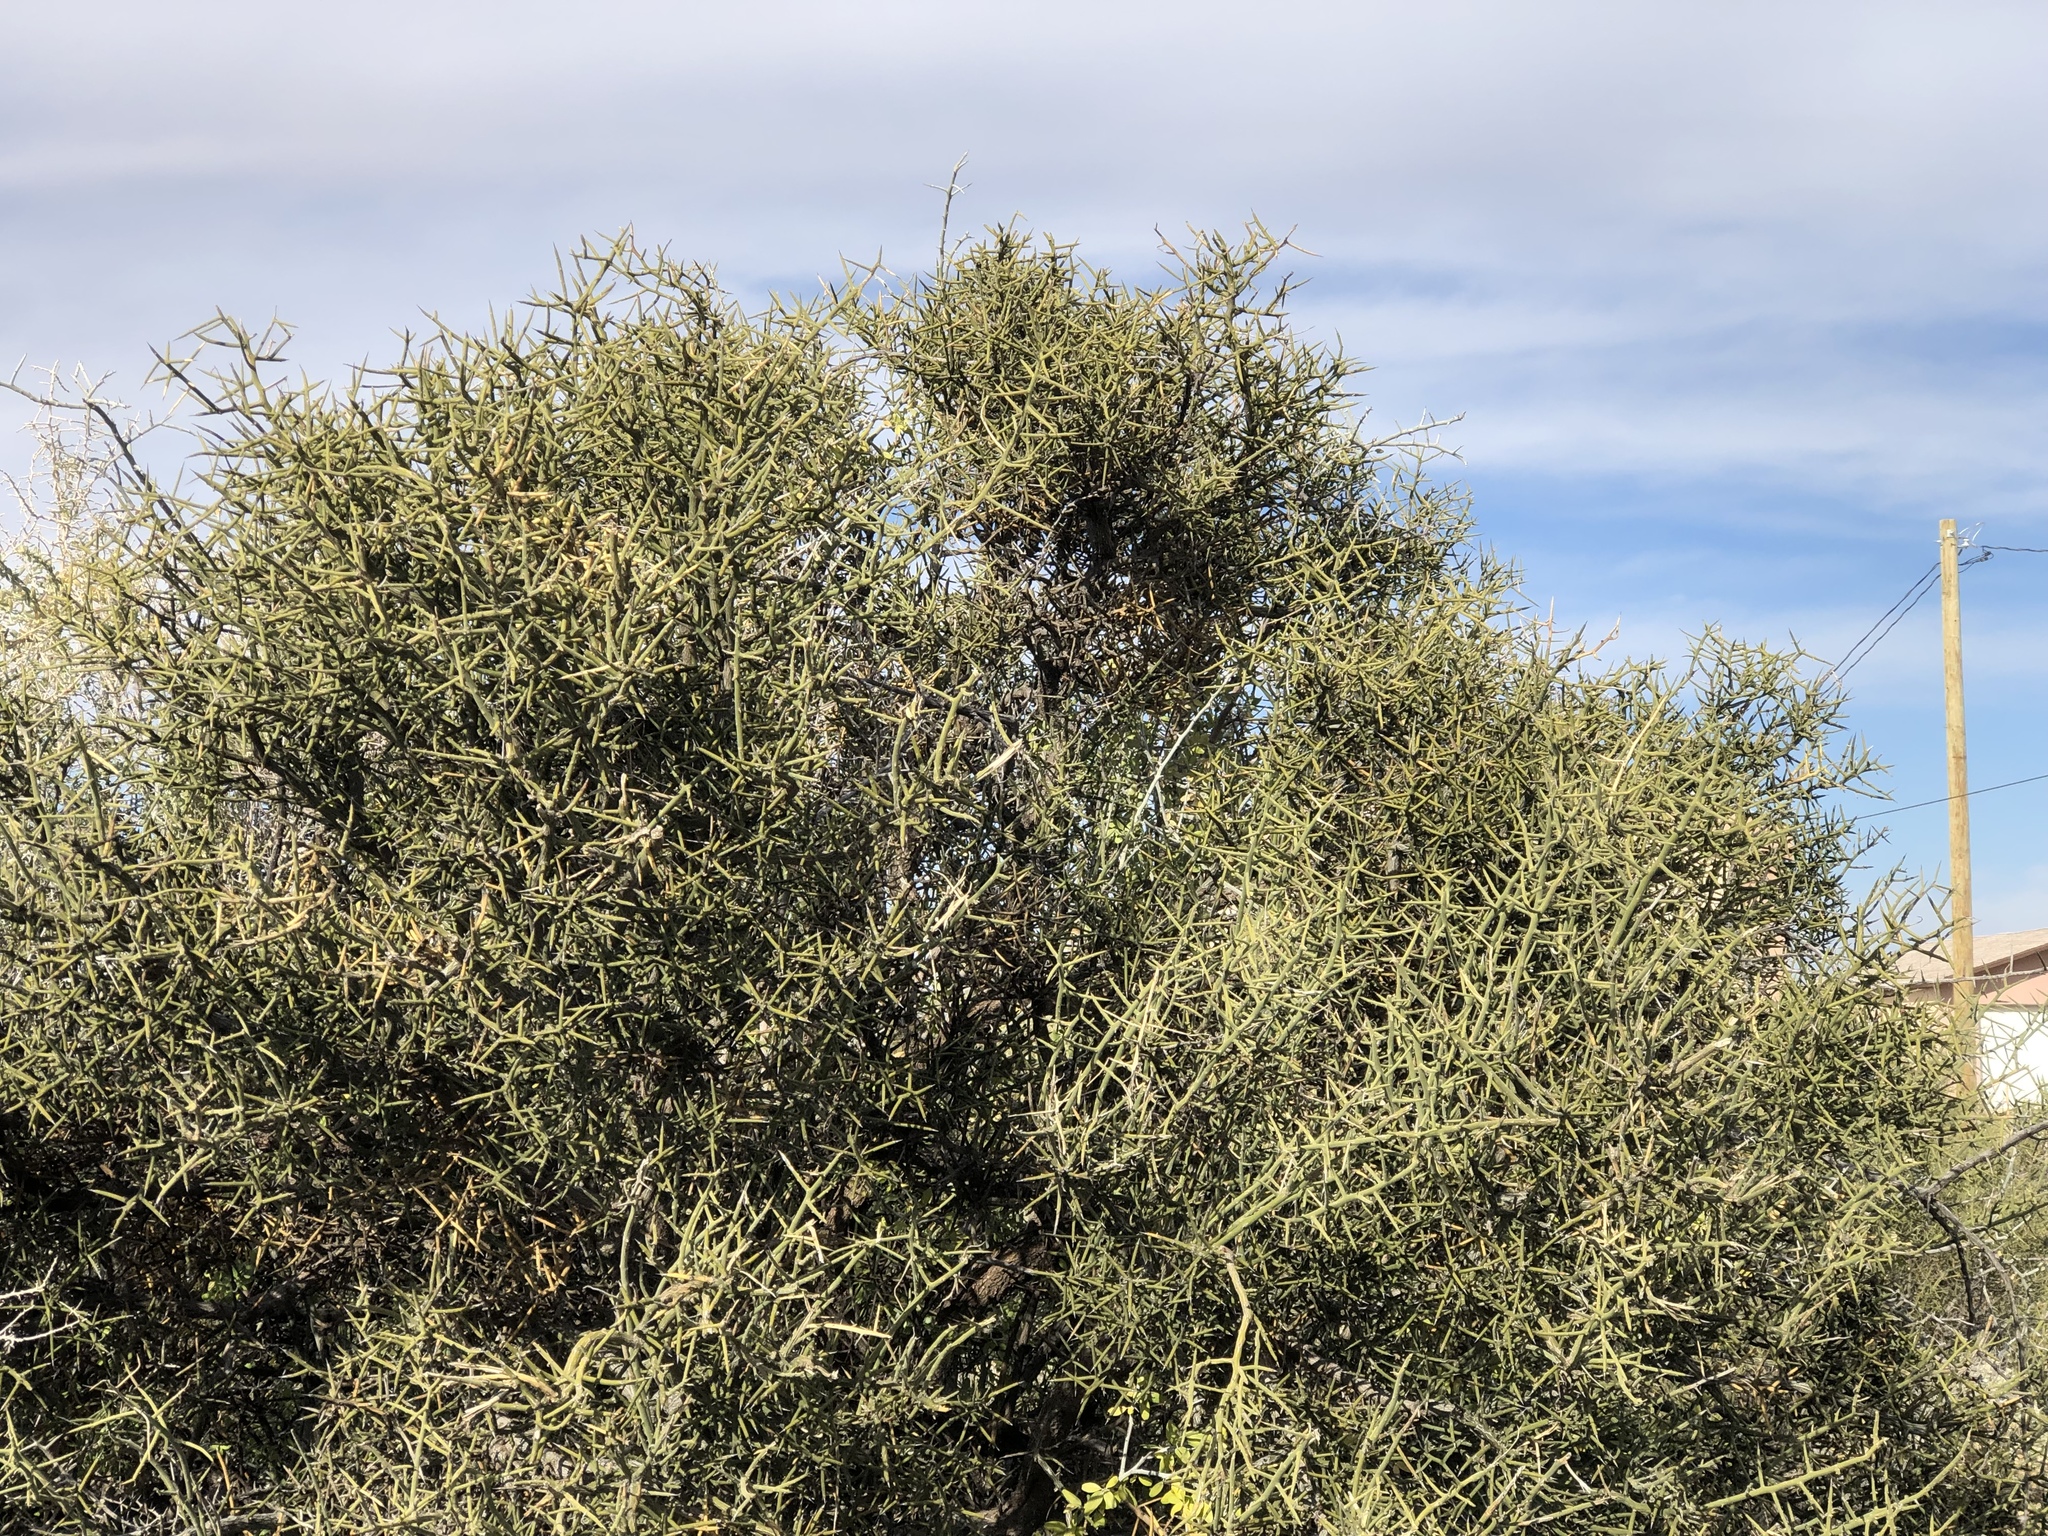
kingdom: Plantae
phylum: Tracheophyta
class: Magnoliopsida
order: Brassicales
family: Koeberliniaceae
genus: Koeberlinia
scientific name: Koeberlinia spinosa
